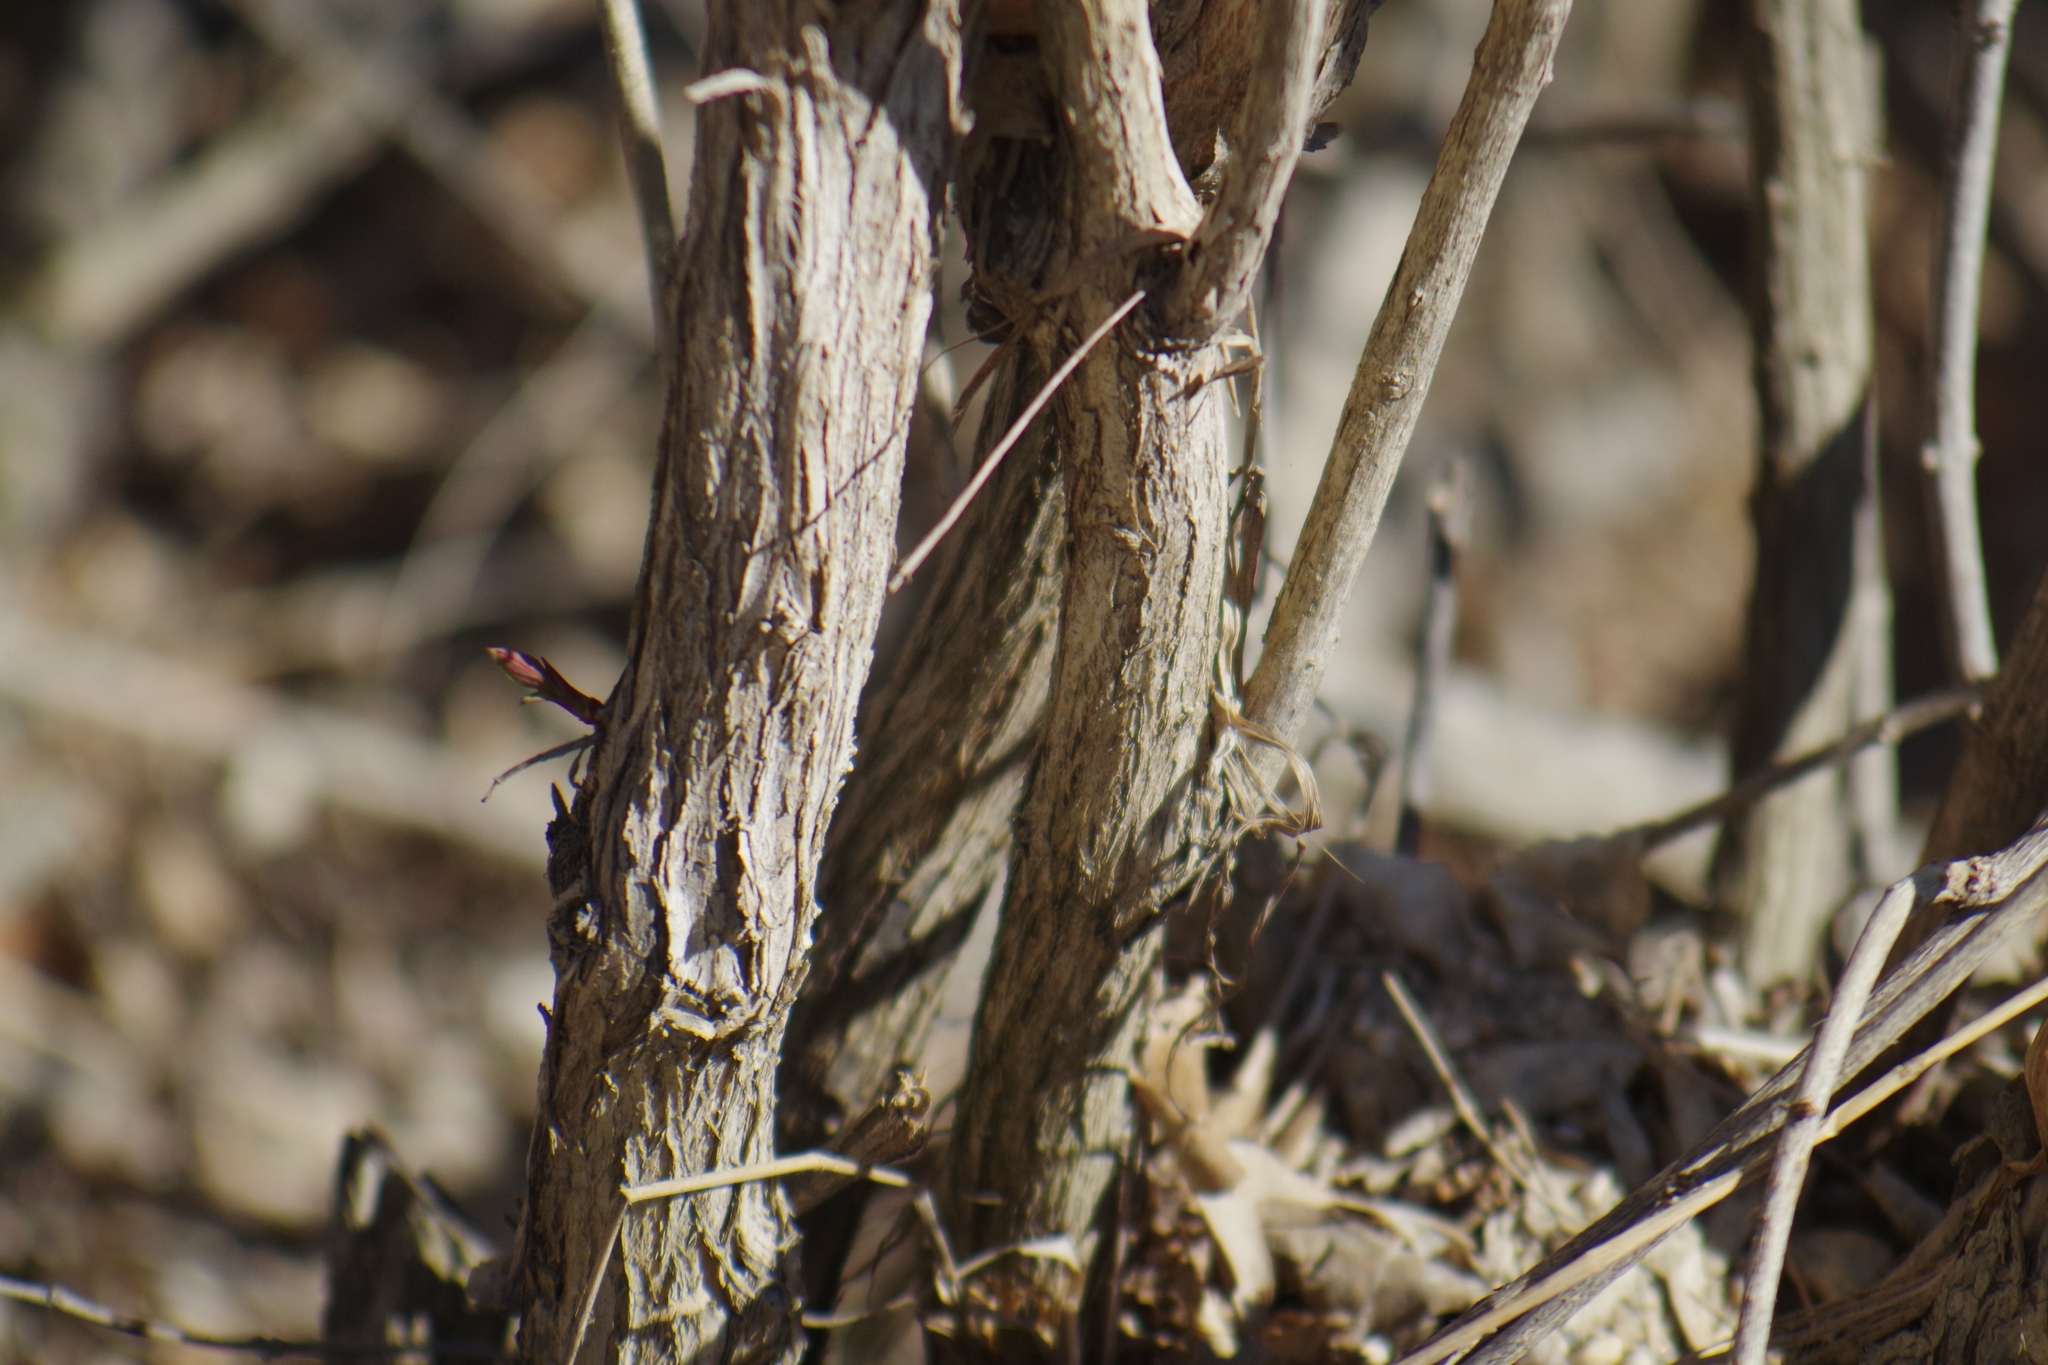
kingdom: Plantae
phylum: Tracheophyta
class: Magnoliopsida
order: Sapindales
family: Sapindaceae
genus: Acer
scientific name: Acer negundo
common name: Ashleaf maple
